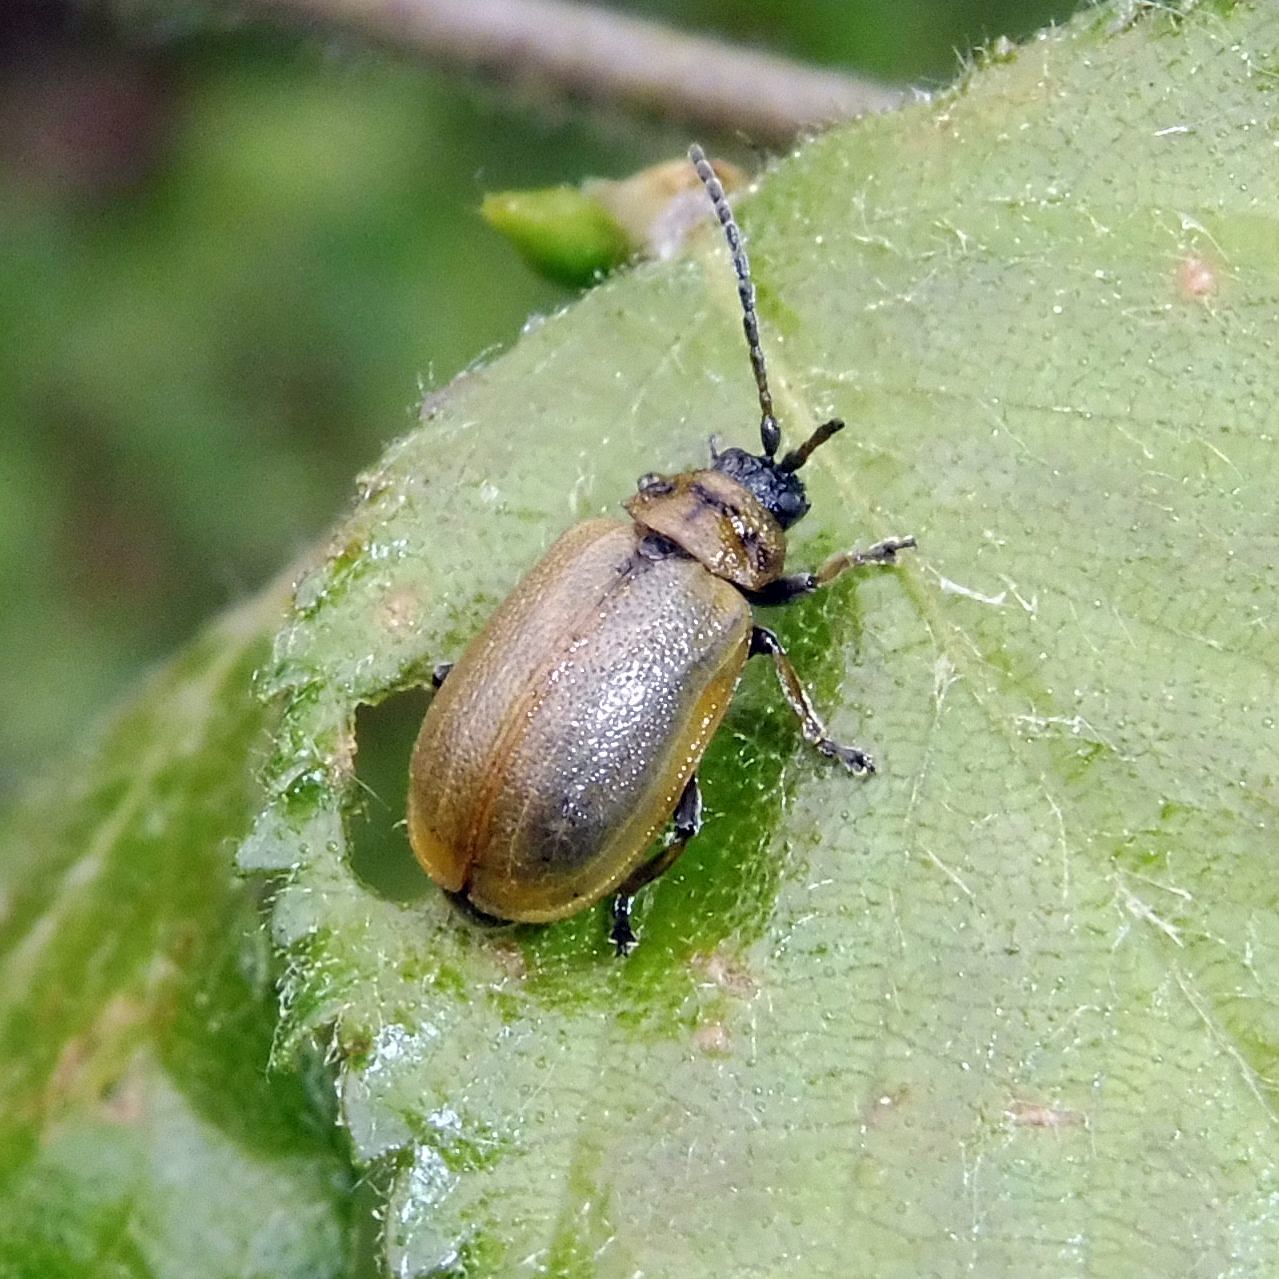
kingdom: Animalia
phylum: Arthropoda
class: Insecta
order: Coleoptera
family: Chrysomelidae
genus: Lochmaea
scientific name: Lochmaea caprea
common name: Willow leaf beetle
